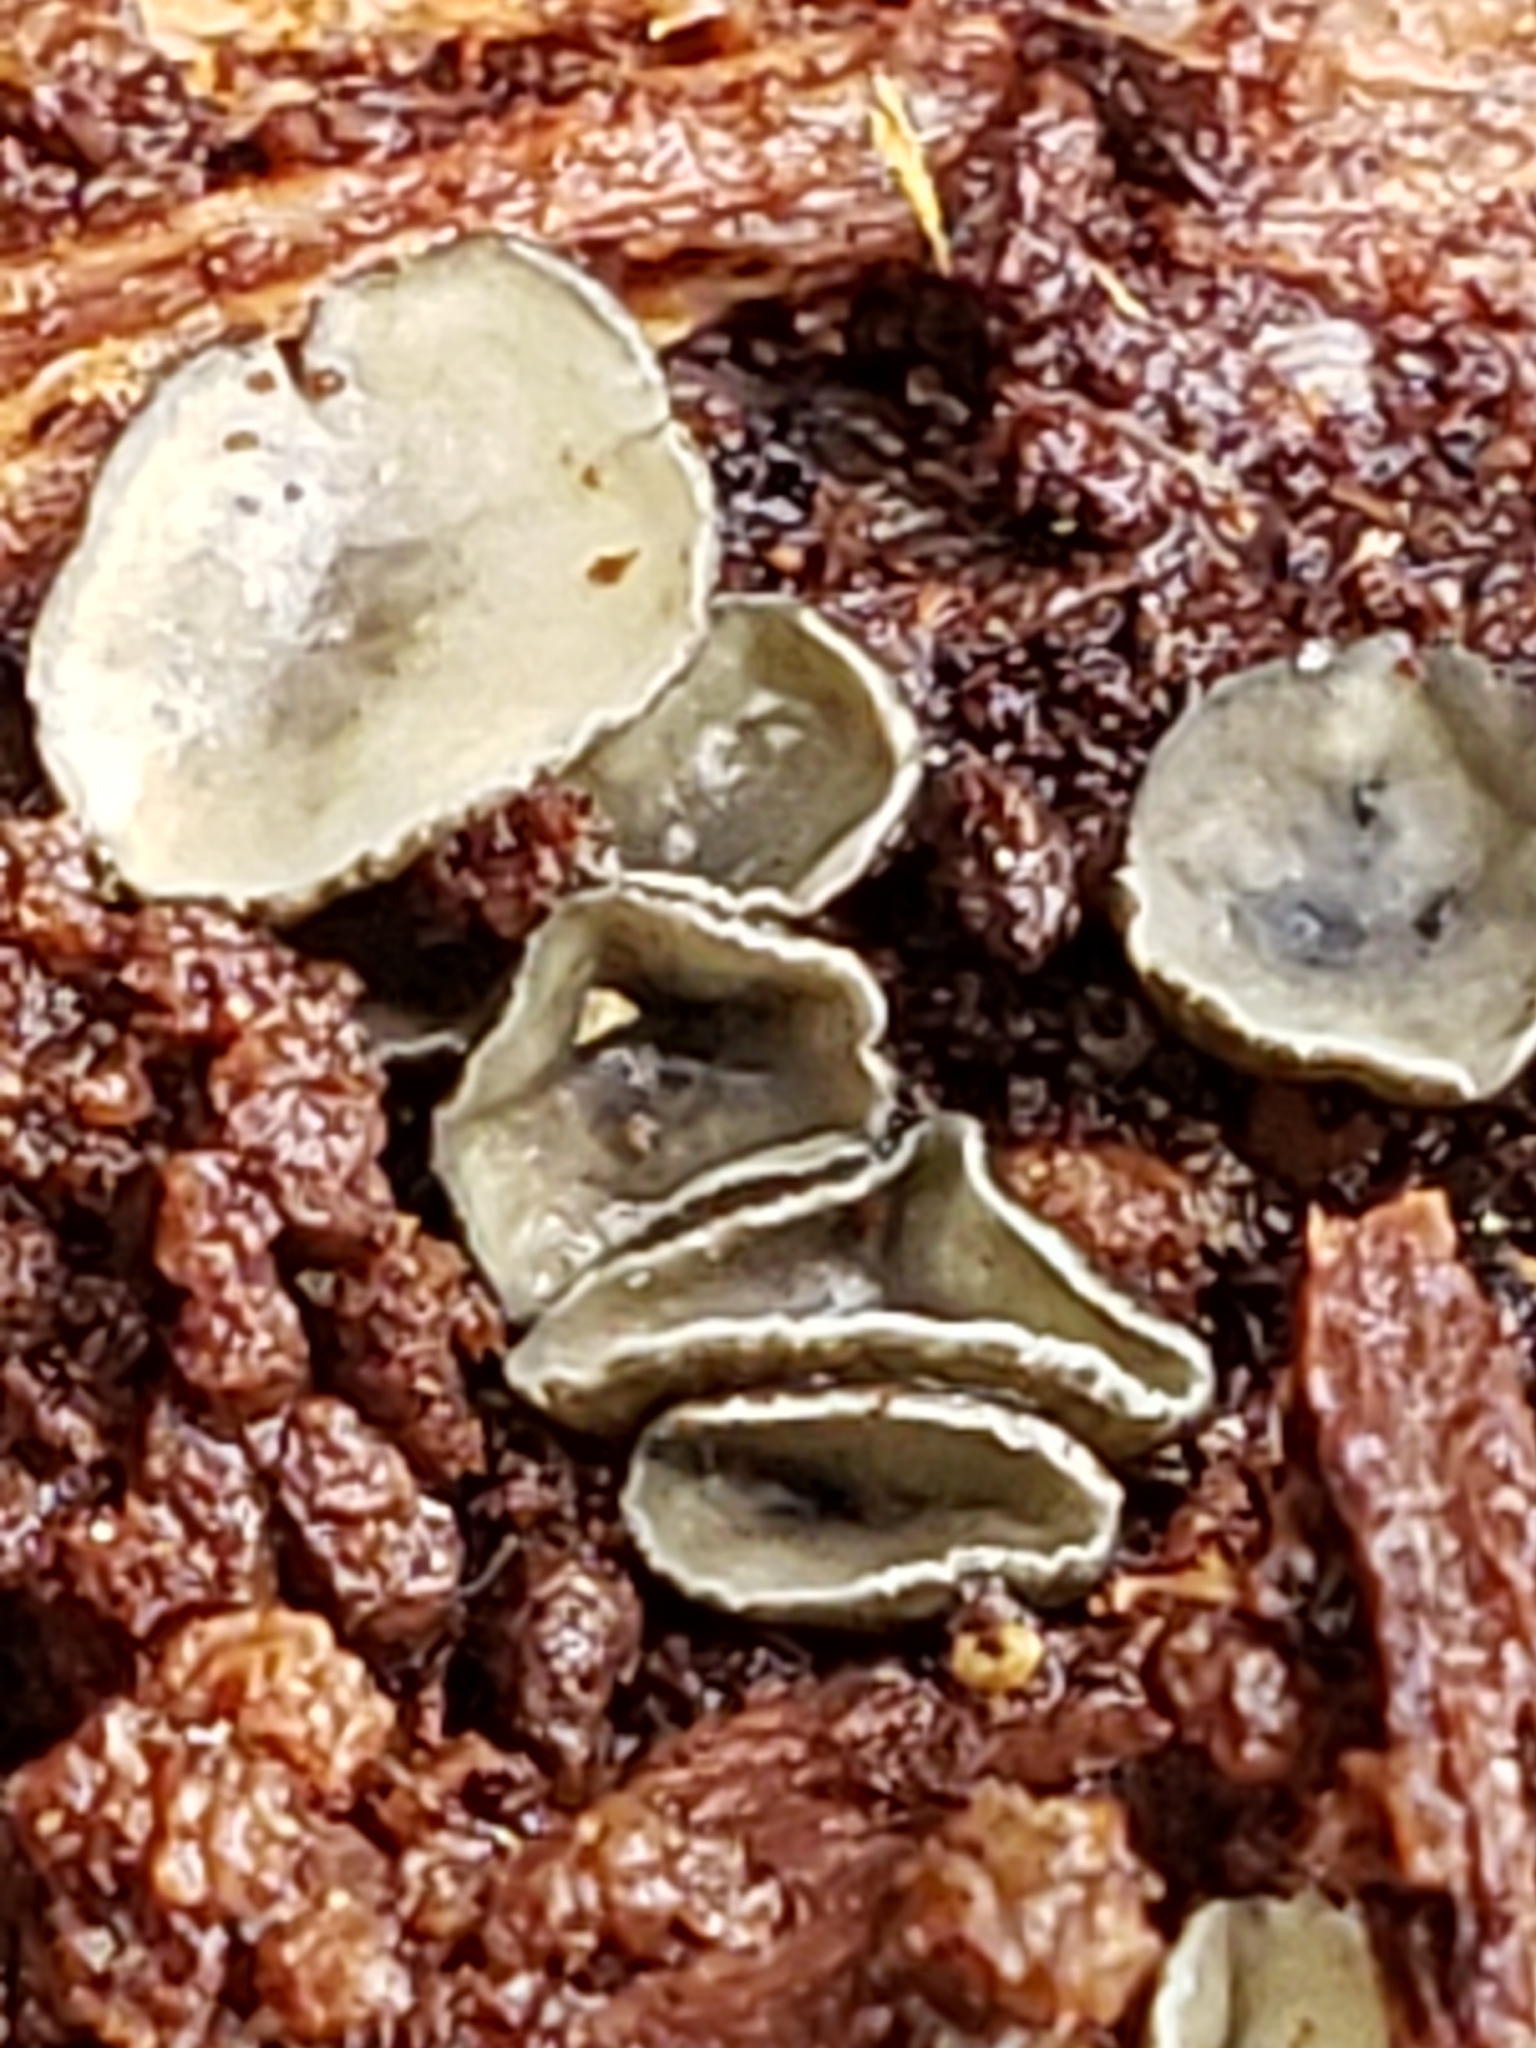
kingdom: Fungi
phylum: Ascomycota
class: Leotiomycetes
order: Helotiales
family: Chlorospleniaceae
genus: Chlorosplenium
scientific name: Chlorosplenium chlora
